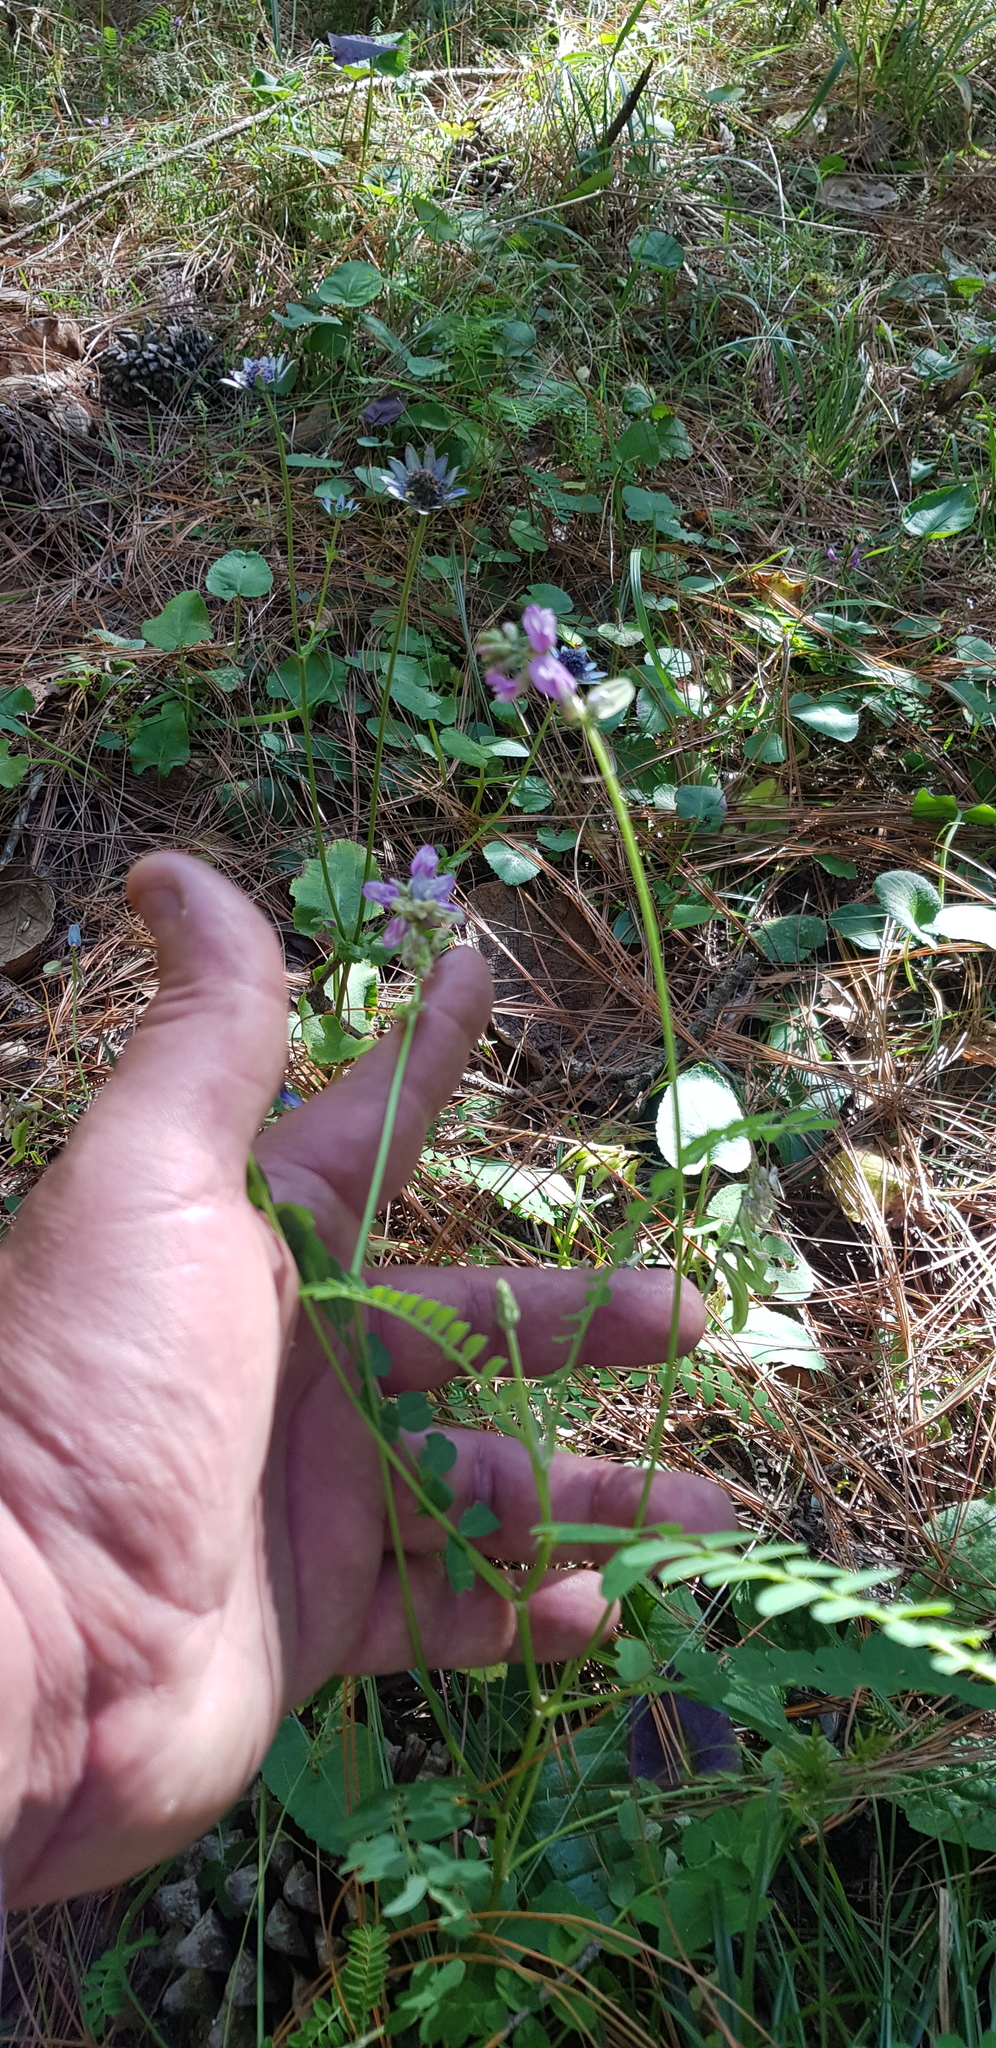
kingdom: Plantae
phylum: Tracheophyta
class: Magnoliopsida
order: Fabales
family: Fabaceae
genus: Astragalus
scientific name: Astragalus guatemalensis
